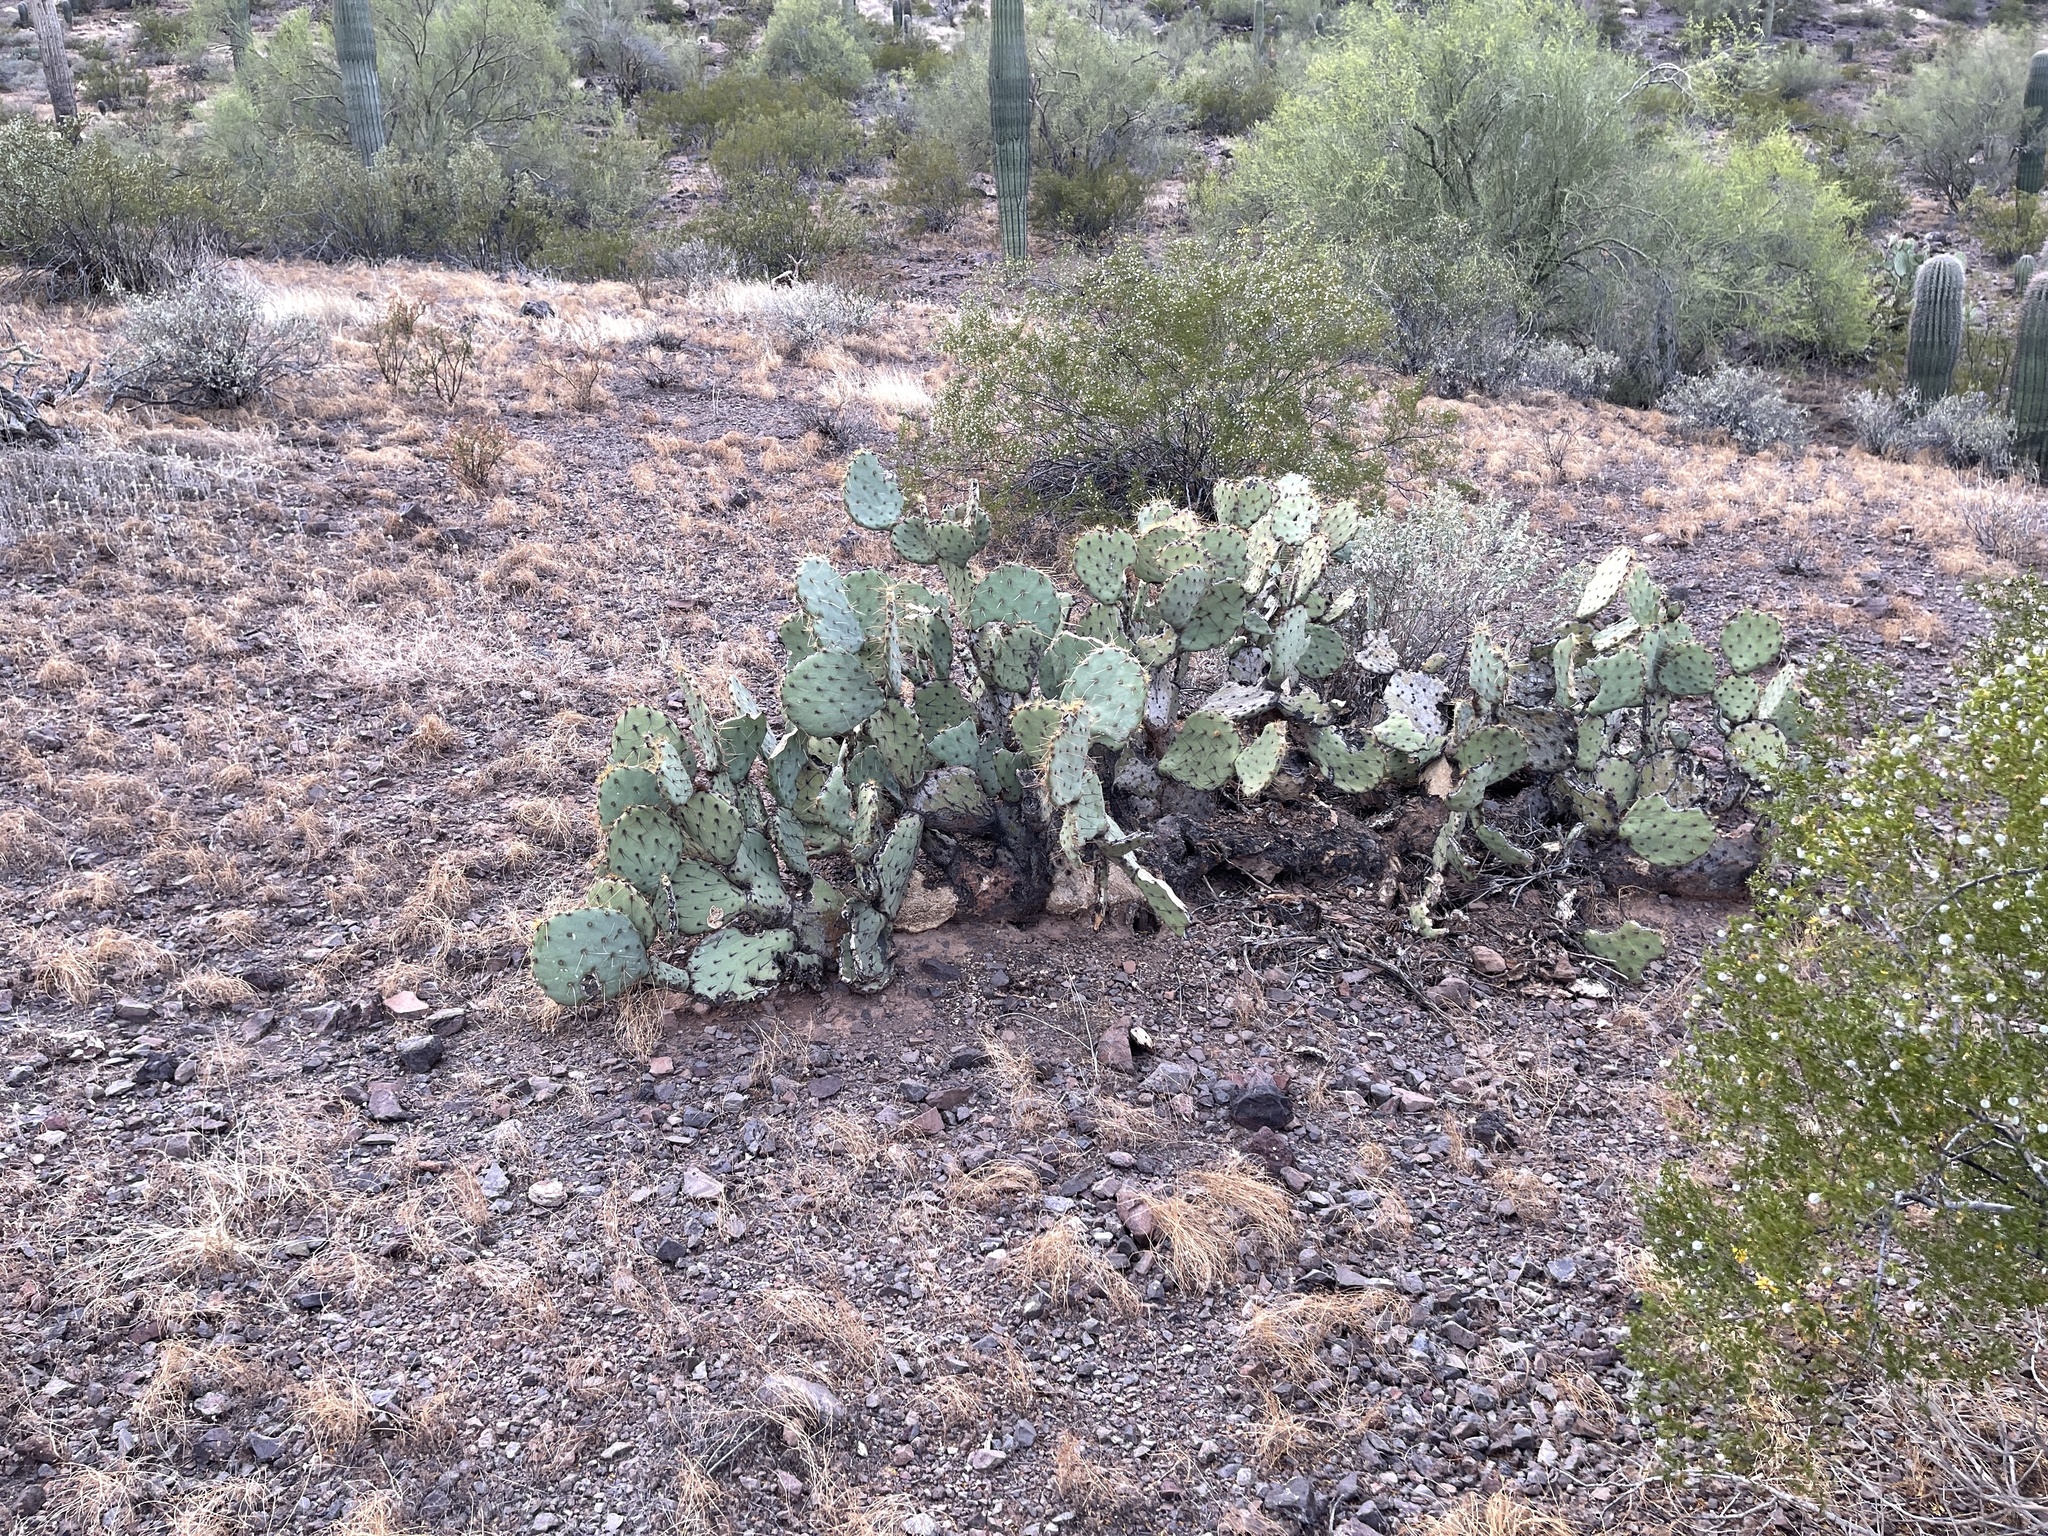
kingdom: Plantae
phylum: Tracheophyta
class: Magnoliopsida
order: Caryophyllales
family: Cactaceae
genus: Opuntia
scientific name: Opuntia engelmannii
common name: Cactus-apple
